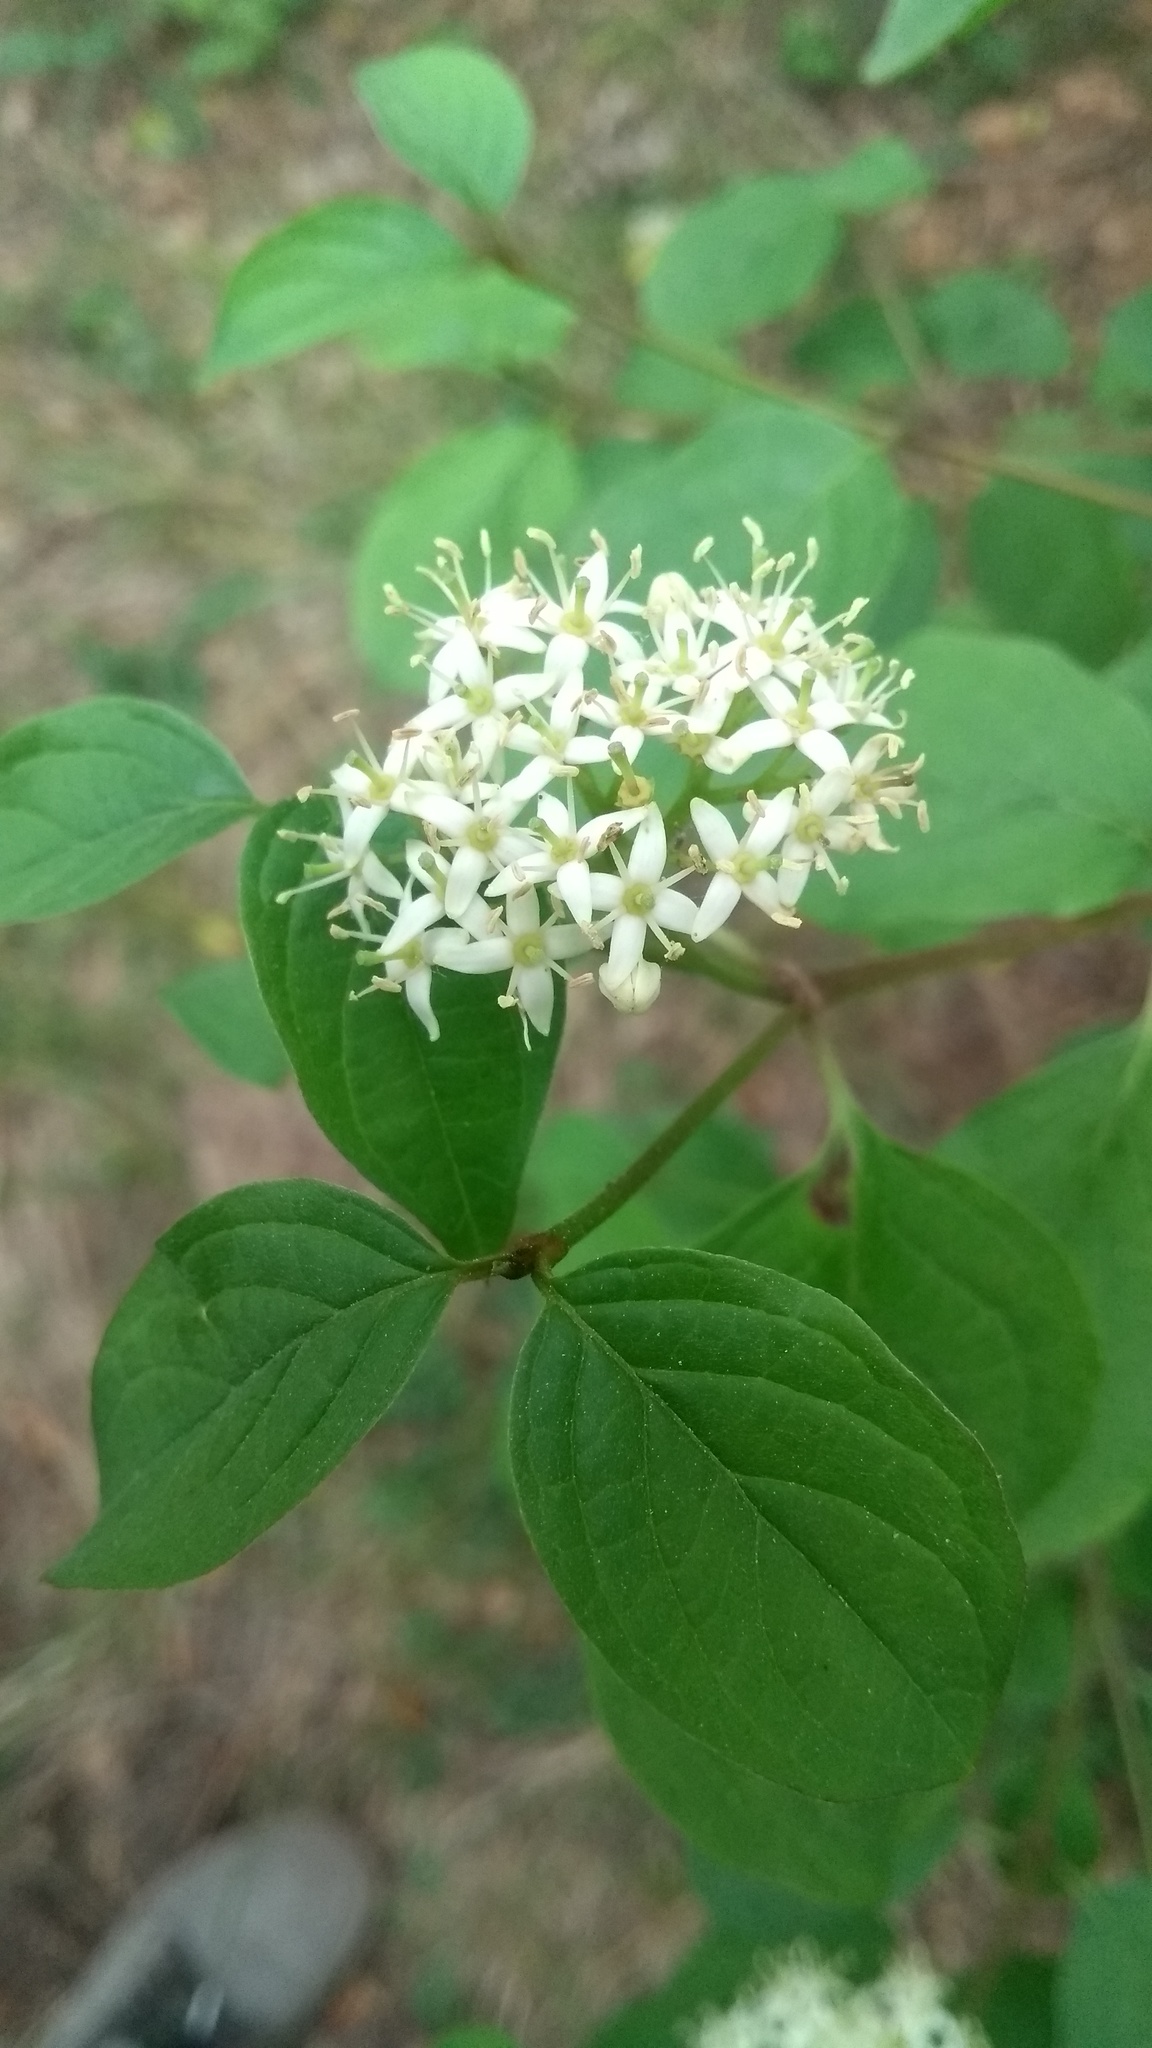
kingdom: Plantae
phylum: Tracheophyta
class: Magnoliopsida
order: Cornales
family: Cornaceae
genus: Cornus
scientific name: Cornus sanguinea
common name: Dogwood
